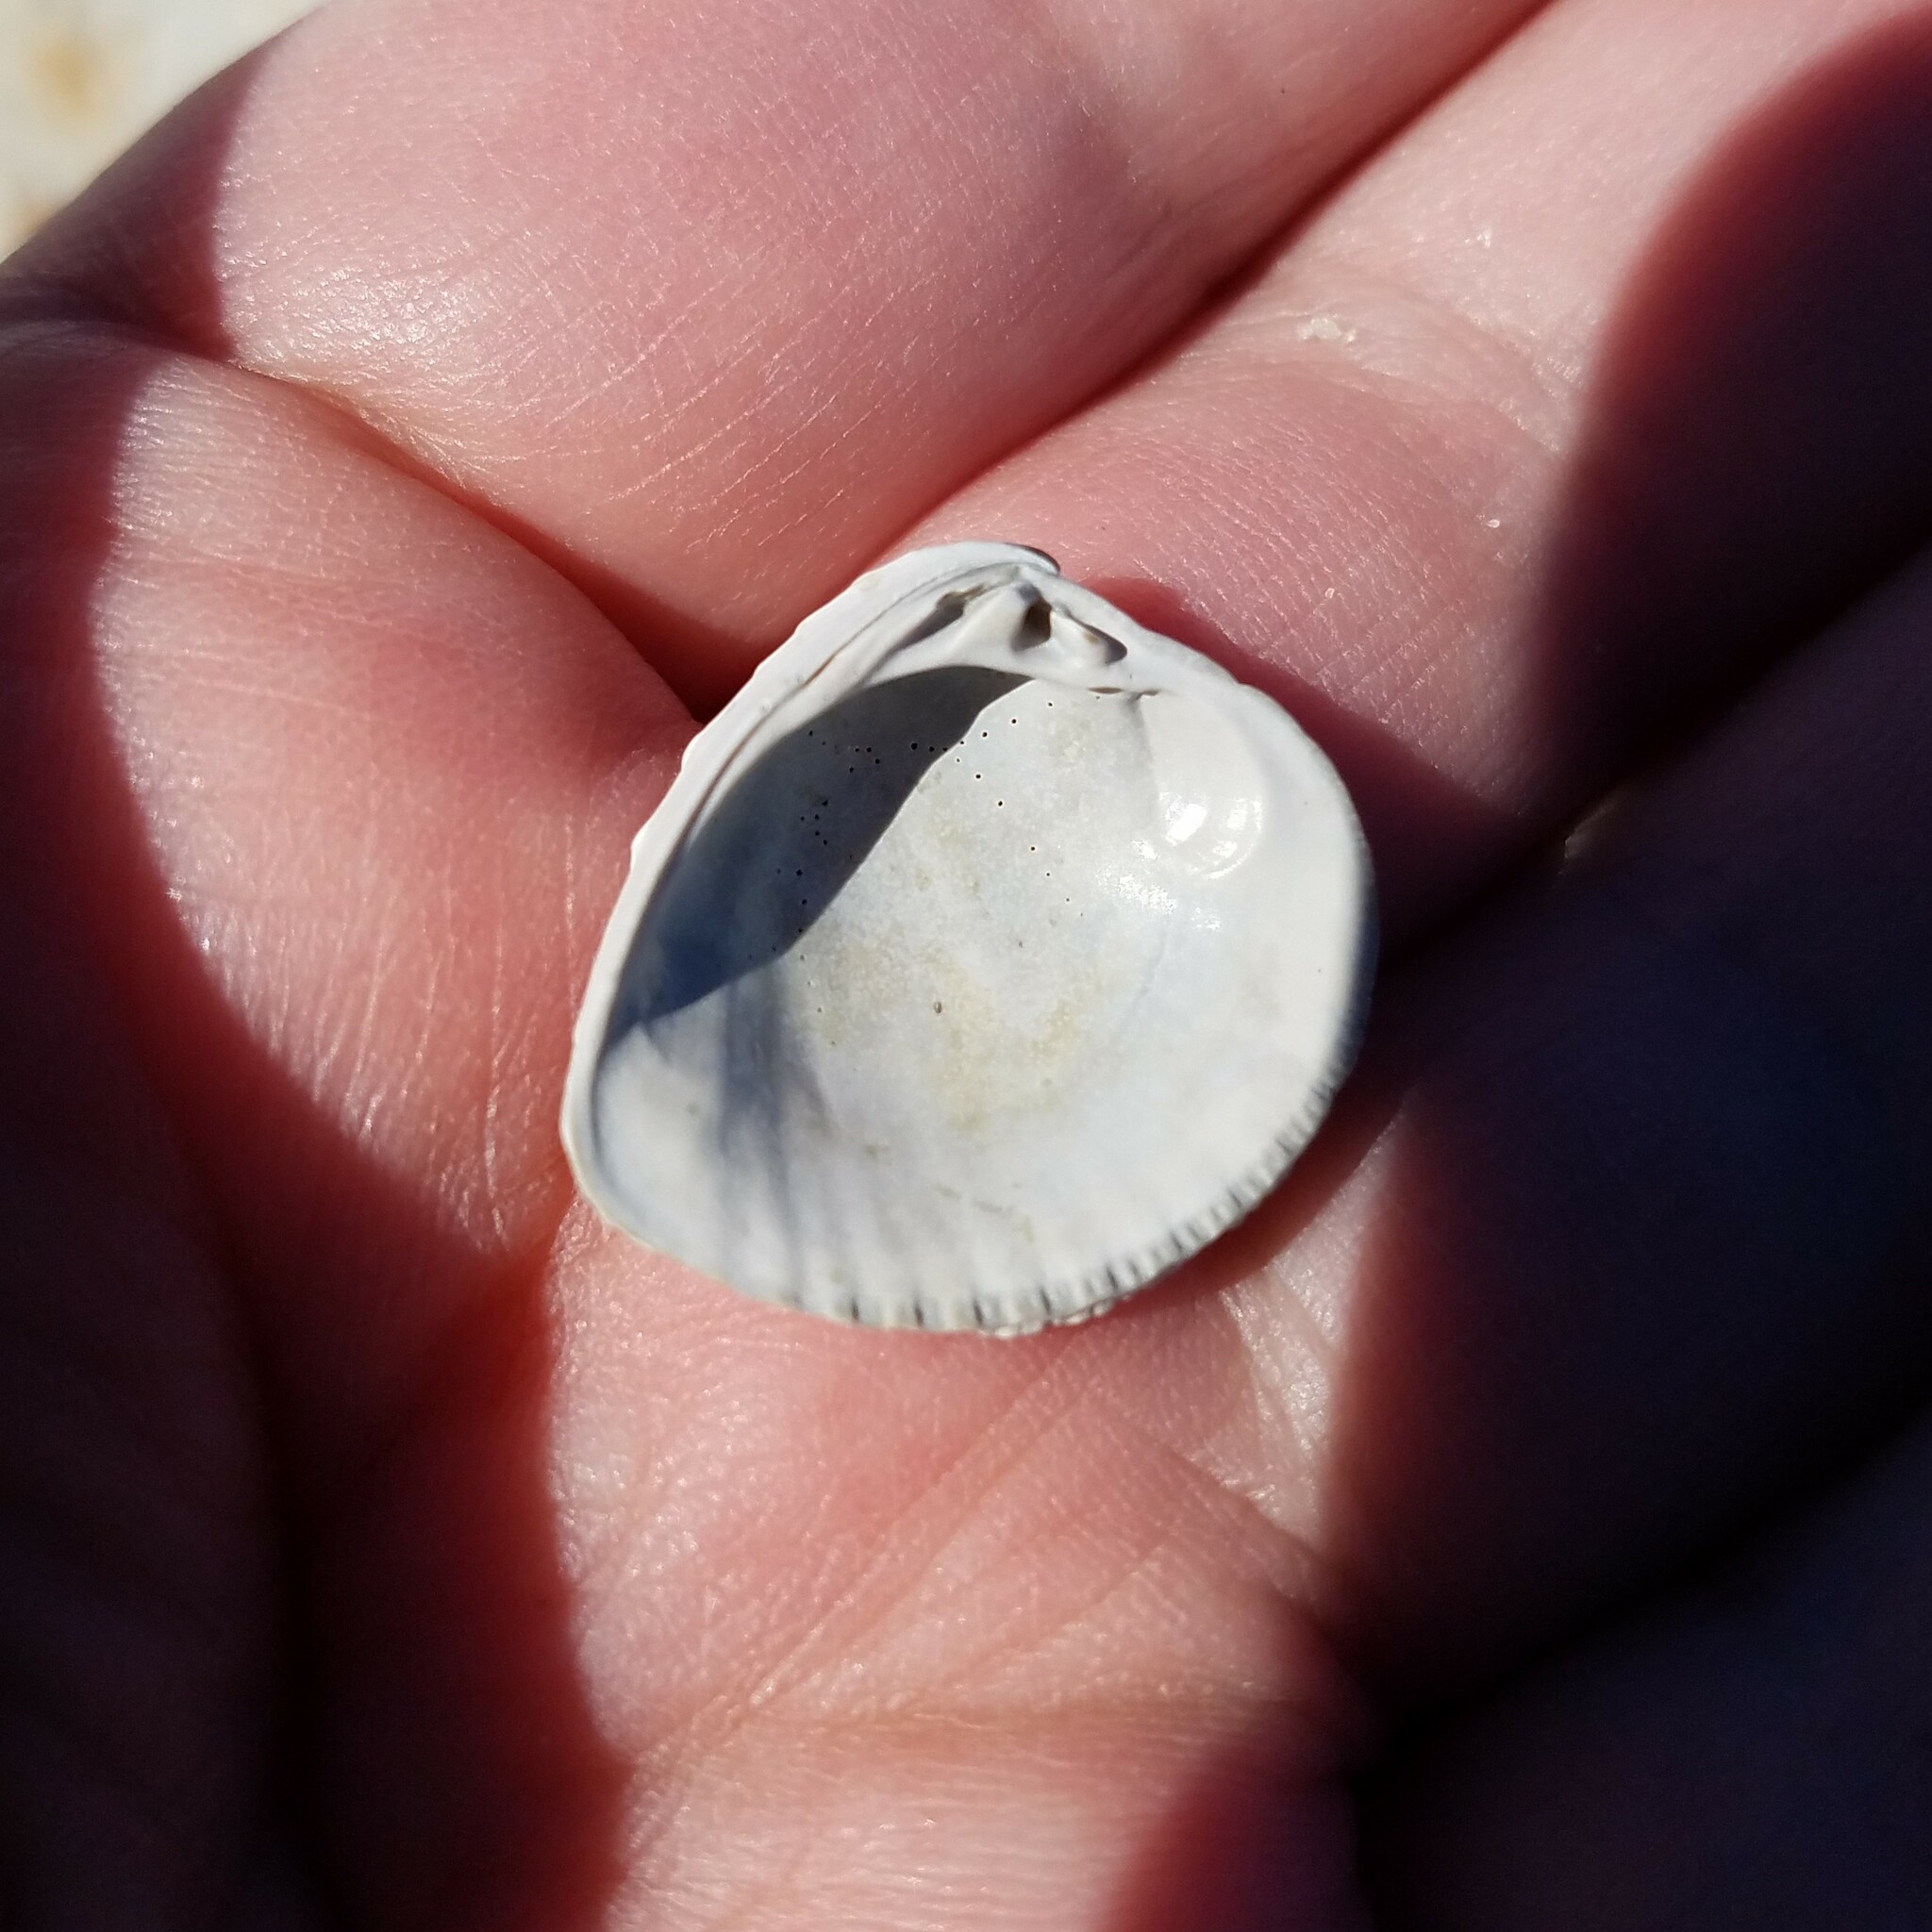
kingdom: Animalia
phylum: Mollusca
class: Bivalvia
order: Venerida
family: Veneridae
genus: Chione
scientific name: Chione elevata
